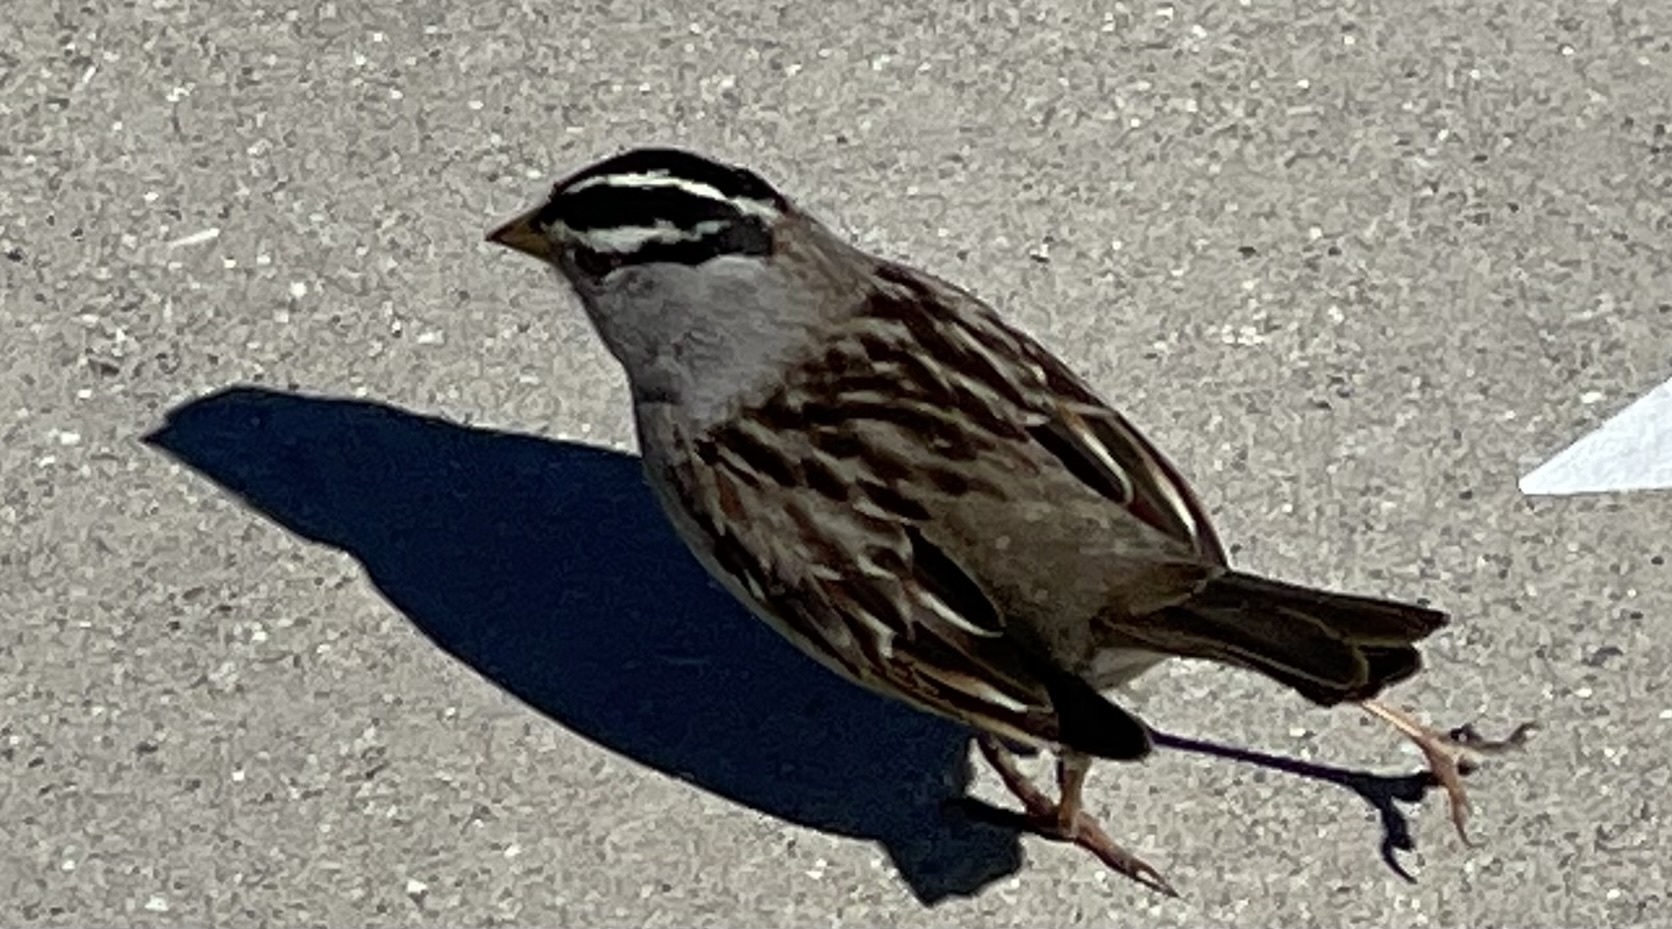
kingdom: Animalia
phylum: Chordata
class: Aves
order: Passeriformes
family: Passerellidae
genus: Zonotrichia
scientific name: Zonotrichia leucophrys
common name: White-crowned sparrow
